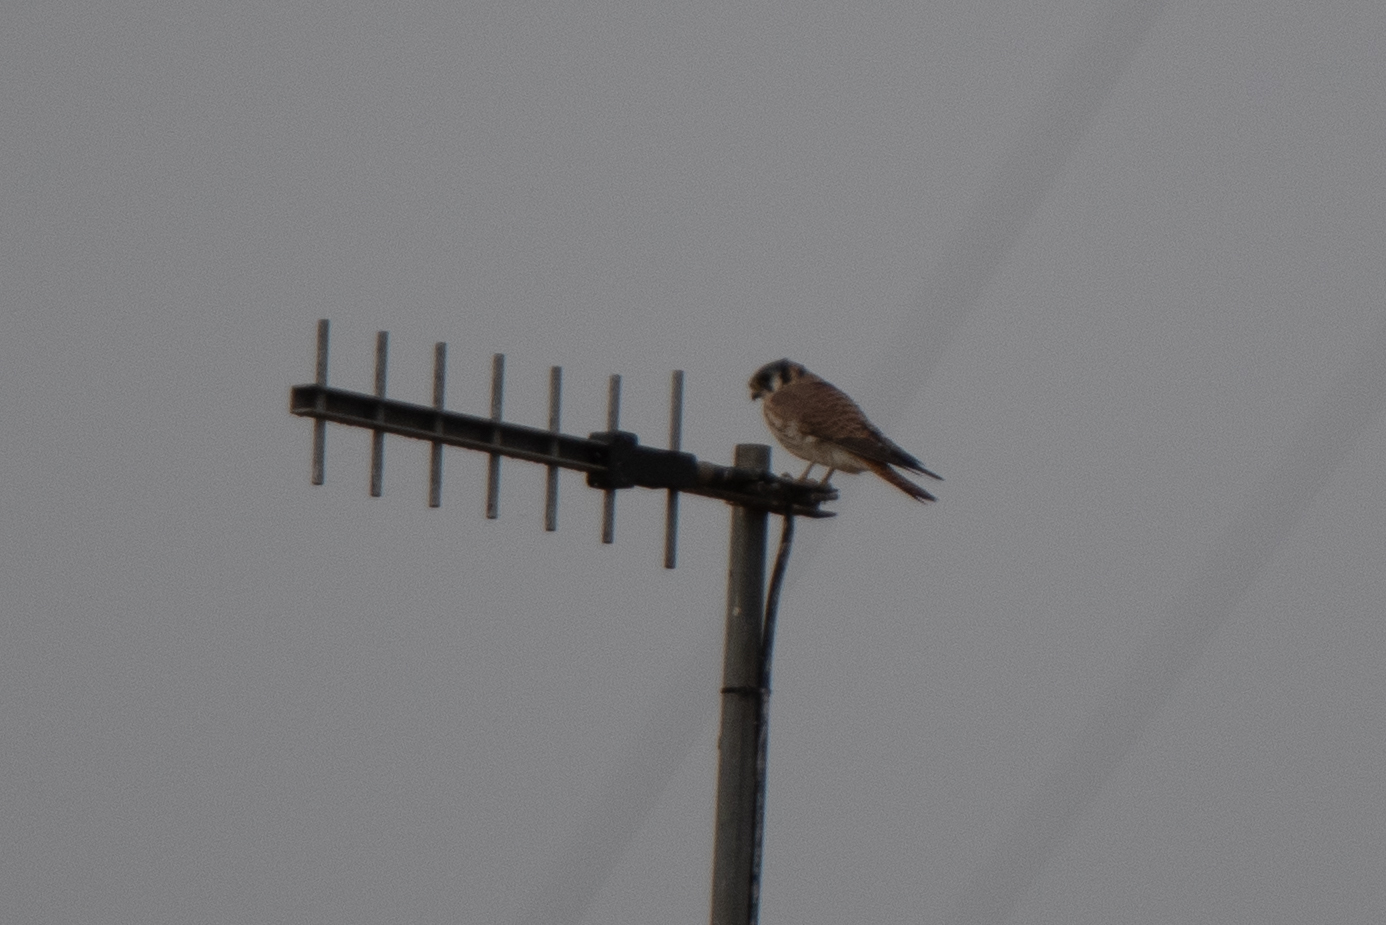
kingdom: Animalia
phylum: Chordata
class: Aves
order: Falconiformes
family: Falconidae
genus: Falco
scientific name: Falco sparverius
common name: American kestrel
